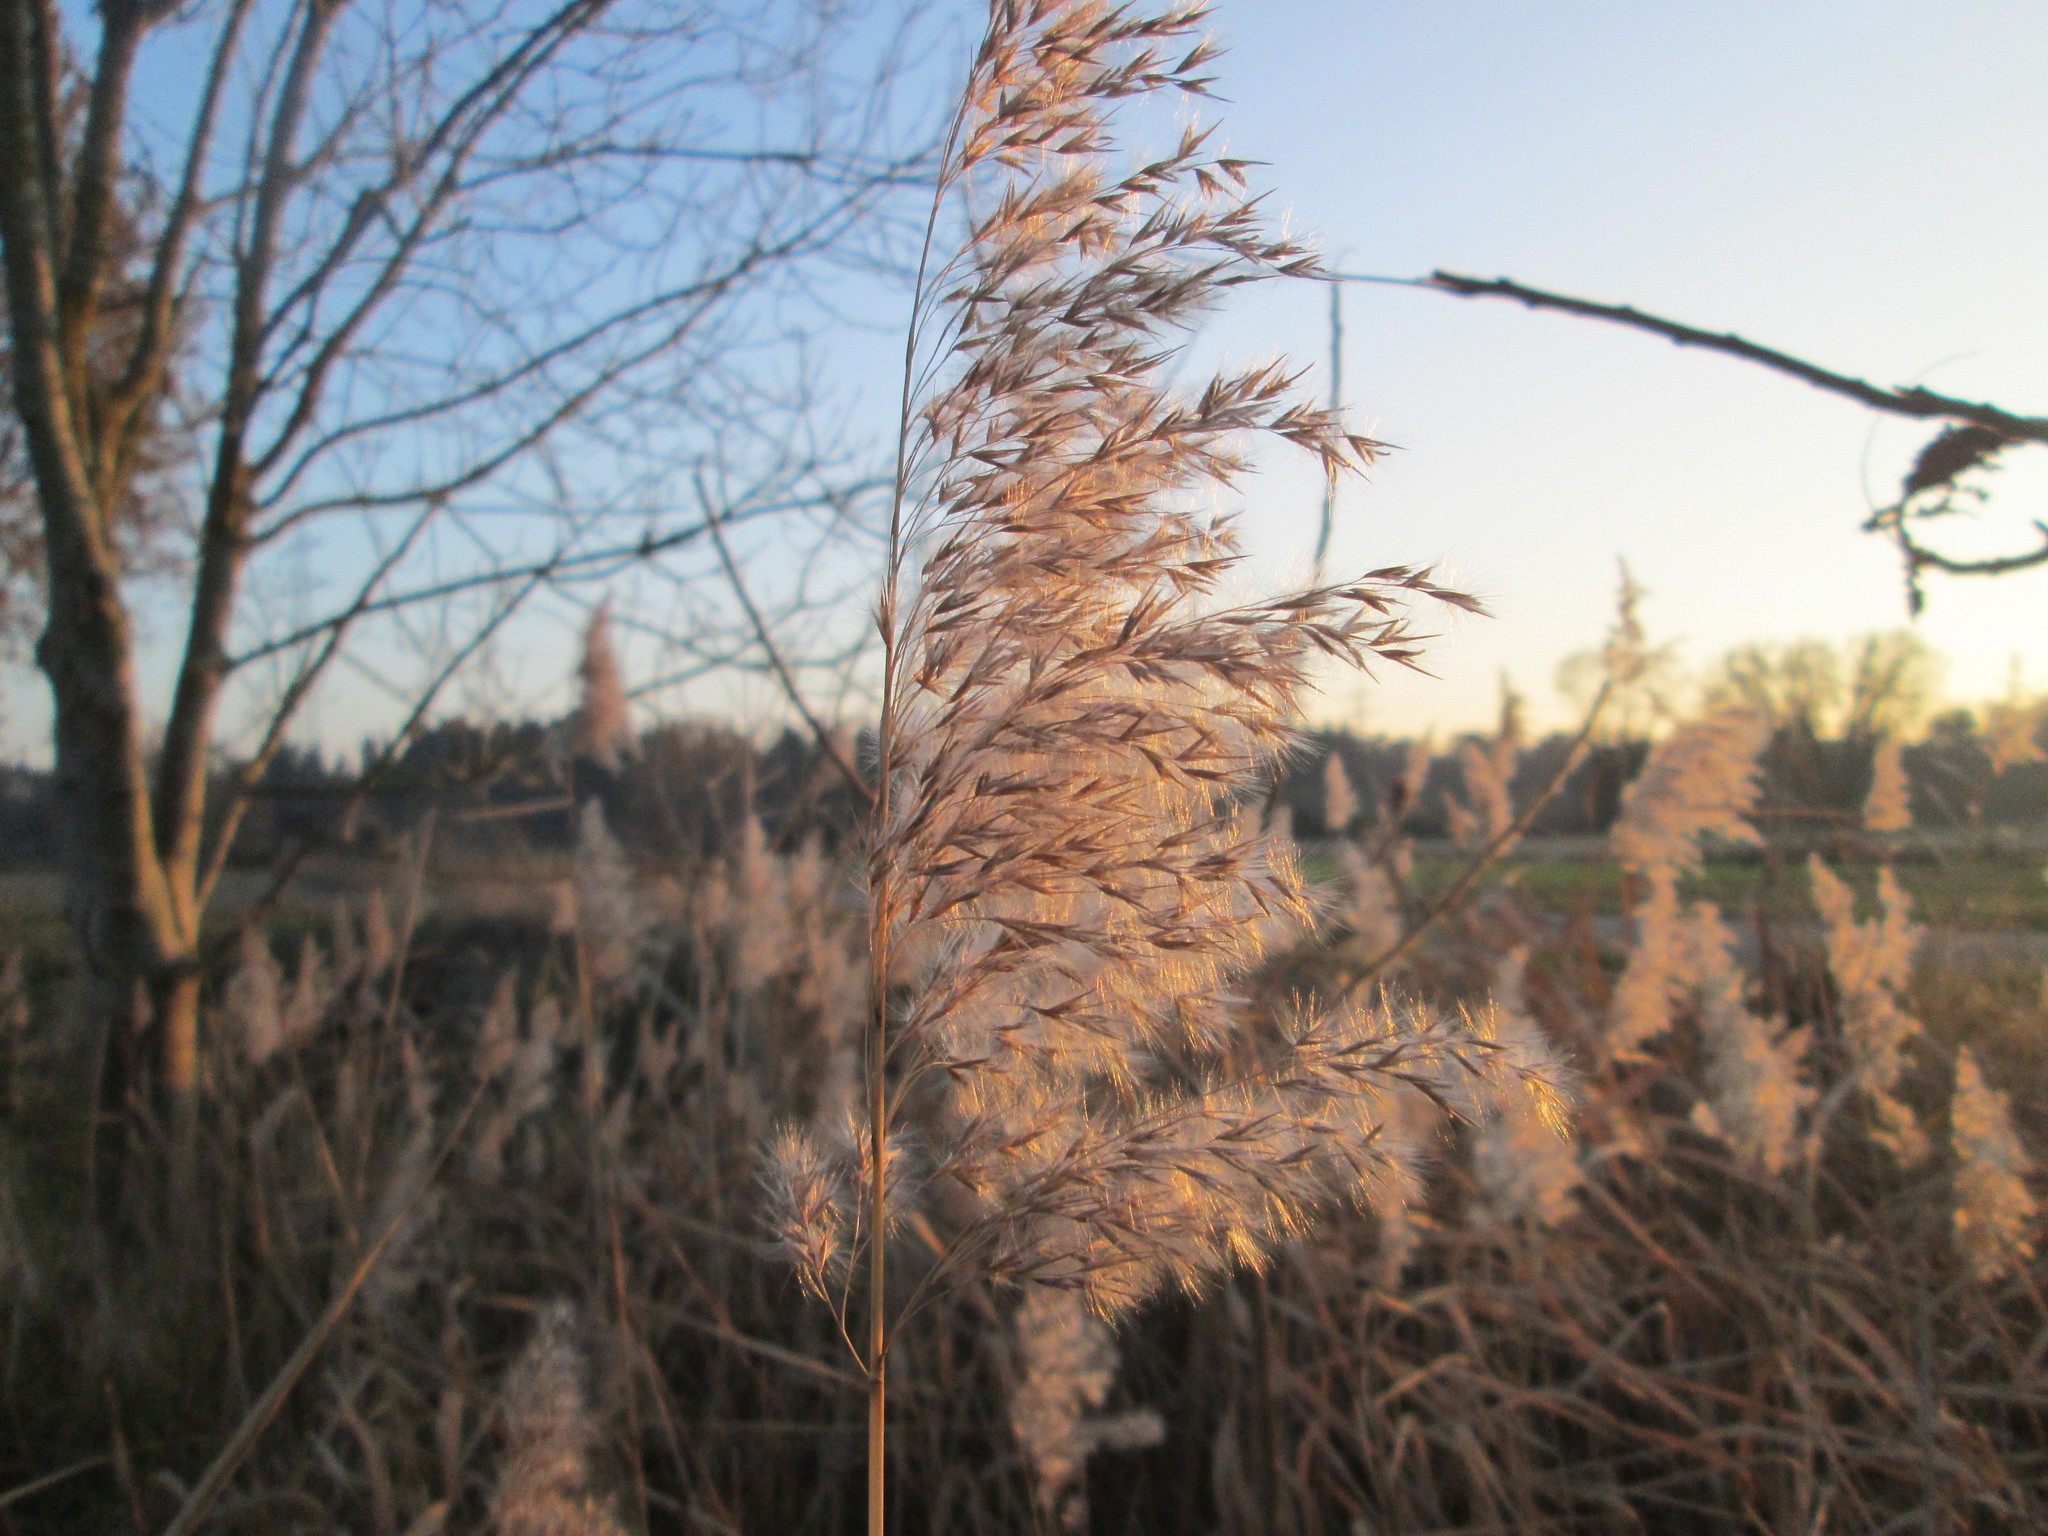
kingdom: Plantae
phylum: Tracheophyta
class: Liliopsida
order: Poales
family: Poaceae
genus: Phragmites
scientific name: Phragmites australis
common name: Common reed
